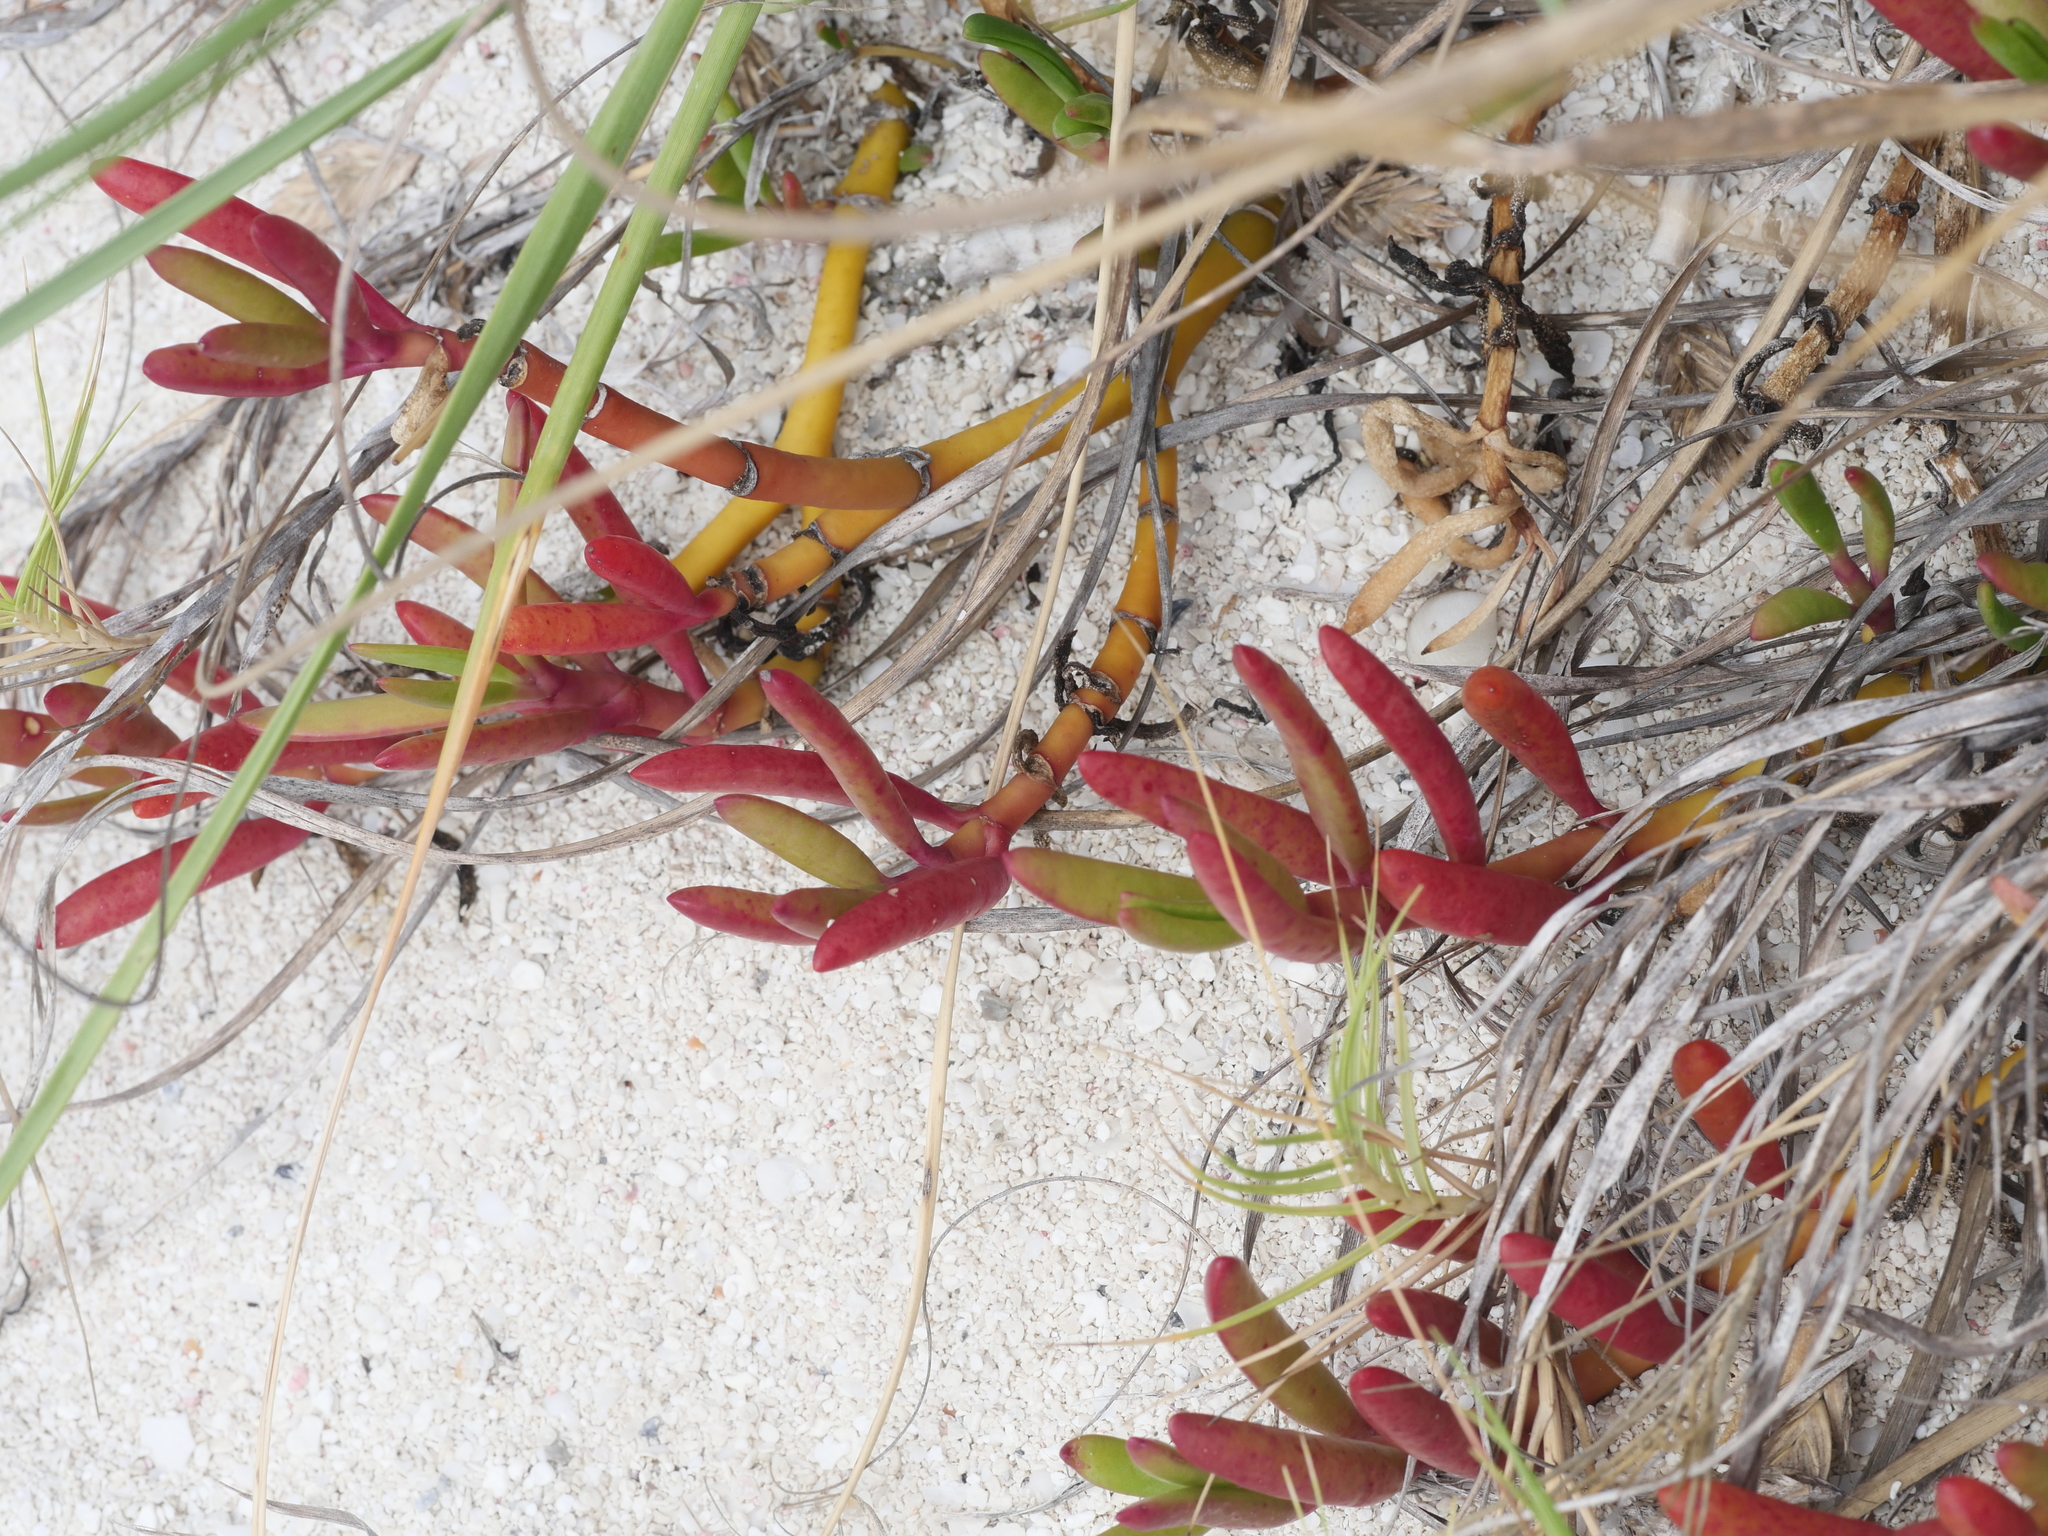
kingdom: Plantae
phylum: Tracheophyta
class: Magnoliopsida
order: Caryophyllales
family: Aizoaceae
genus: Sesuvium
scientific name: Sesuvium portulacastrum
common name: Sea-purslane
